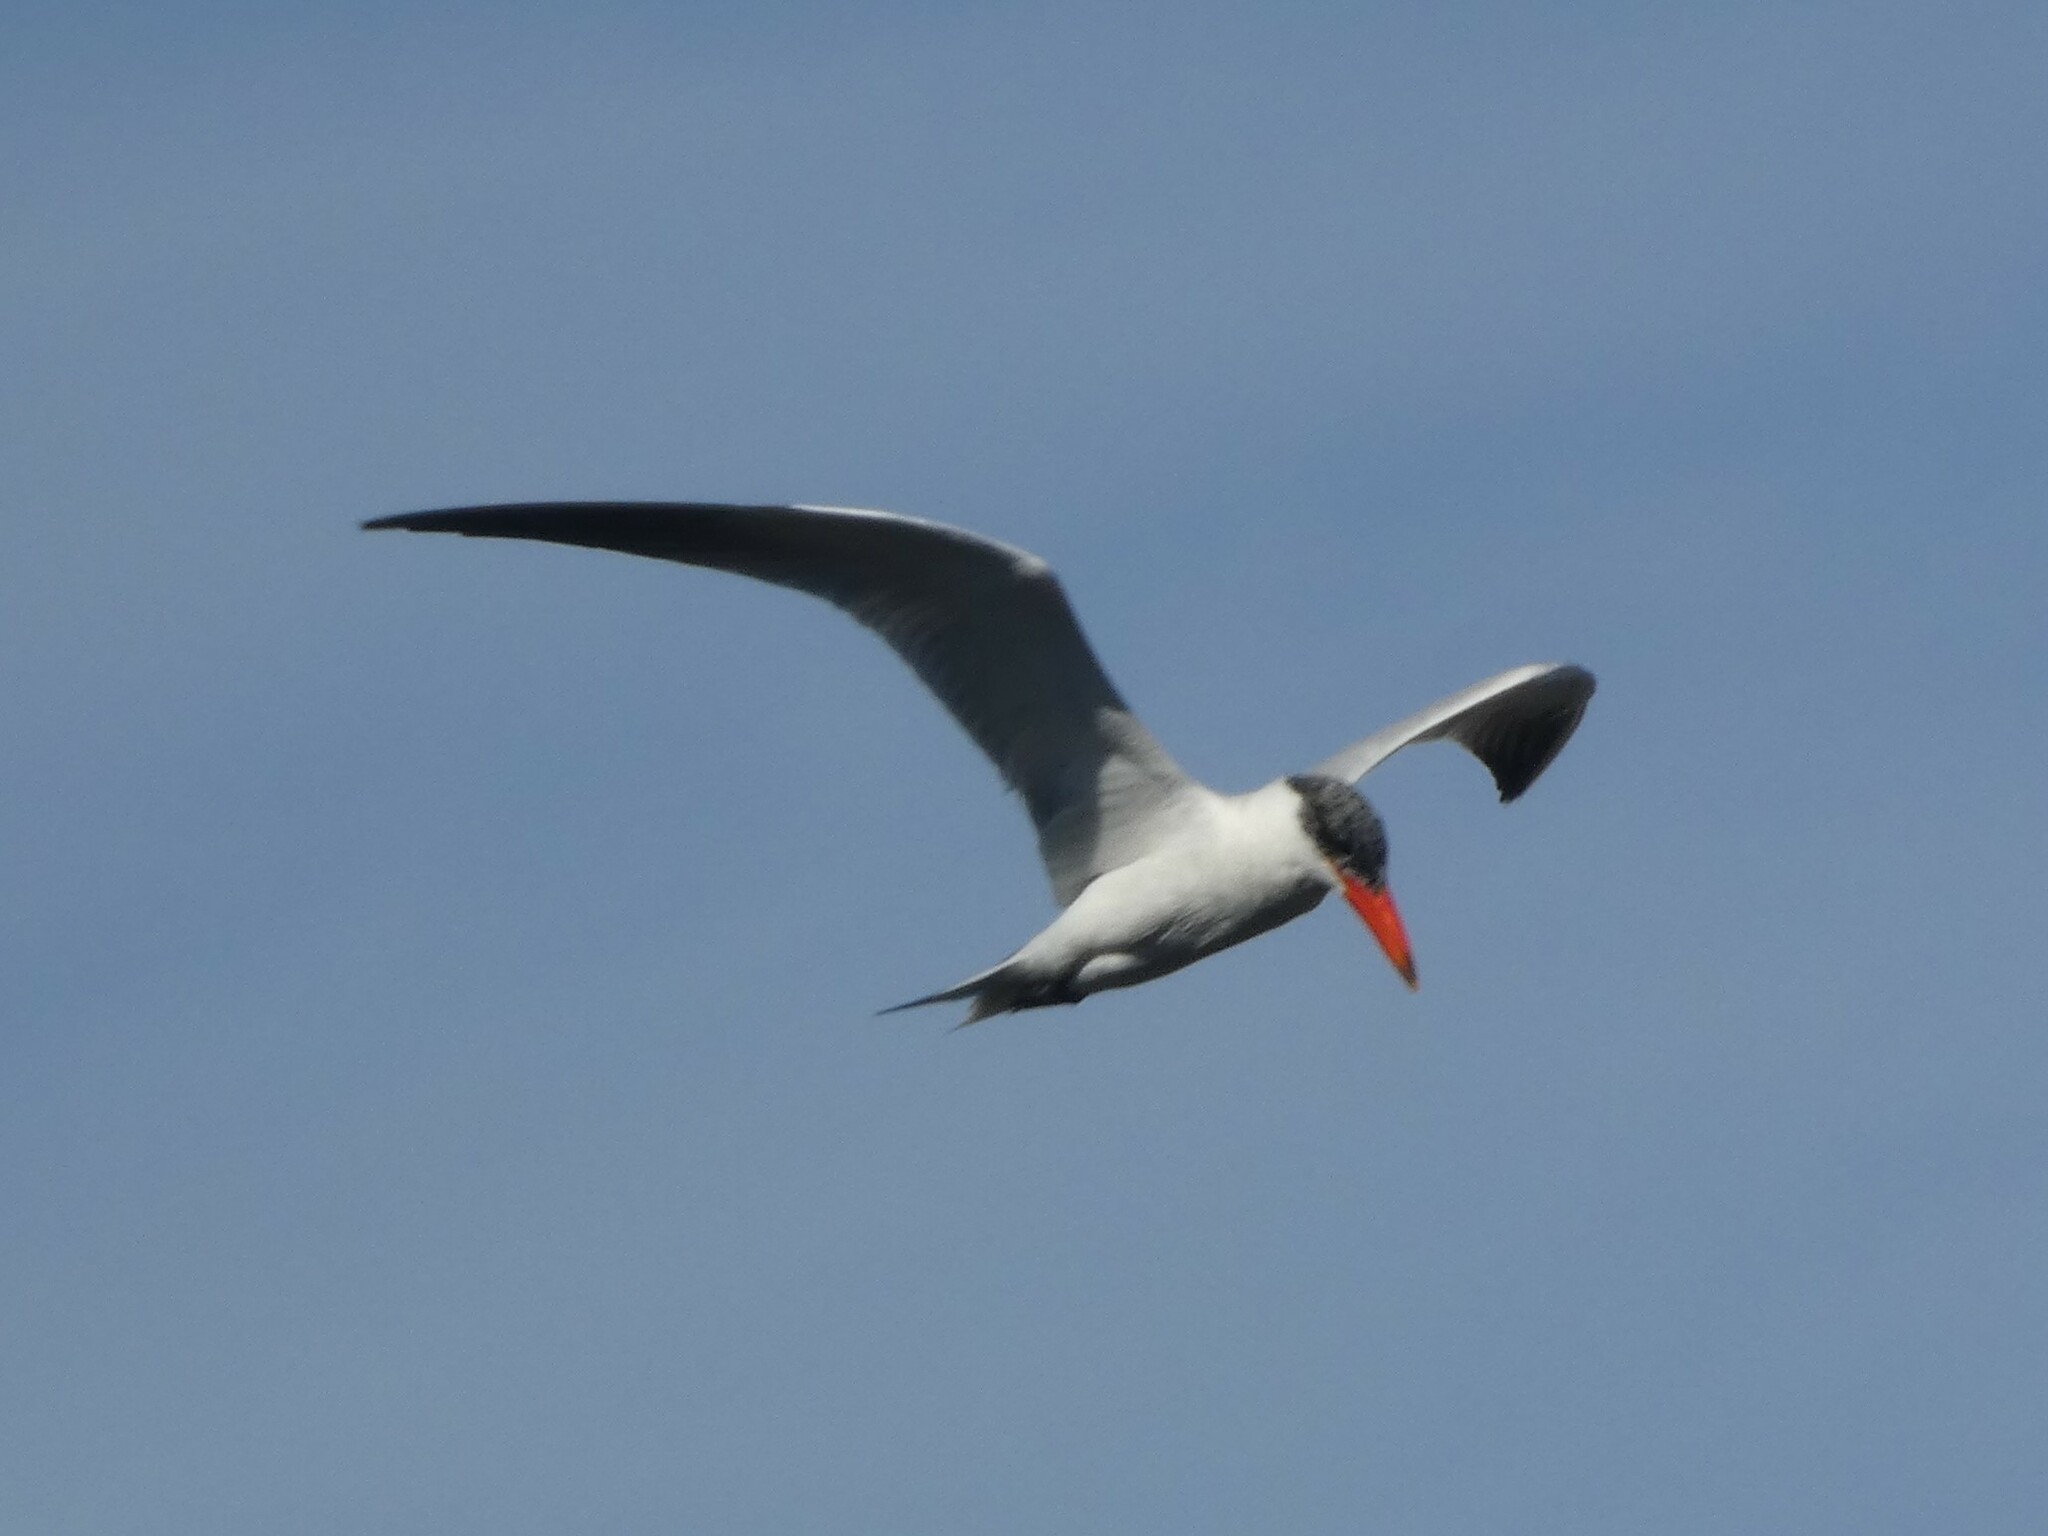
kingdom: Animalia
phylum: Chordata
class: Aves
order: Charadriiformes
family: Laridae
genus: Hydroprogne
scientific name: Hydroprogne caspia
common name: Caspian tern
